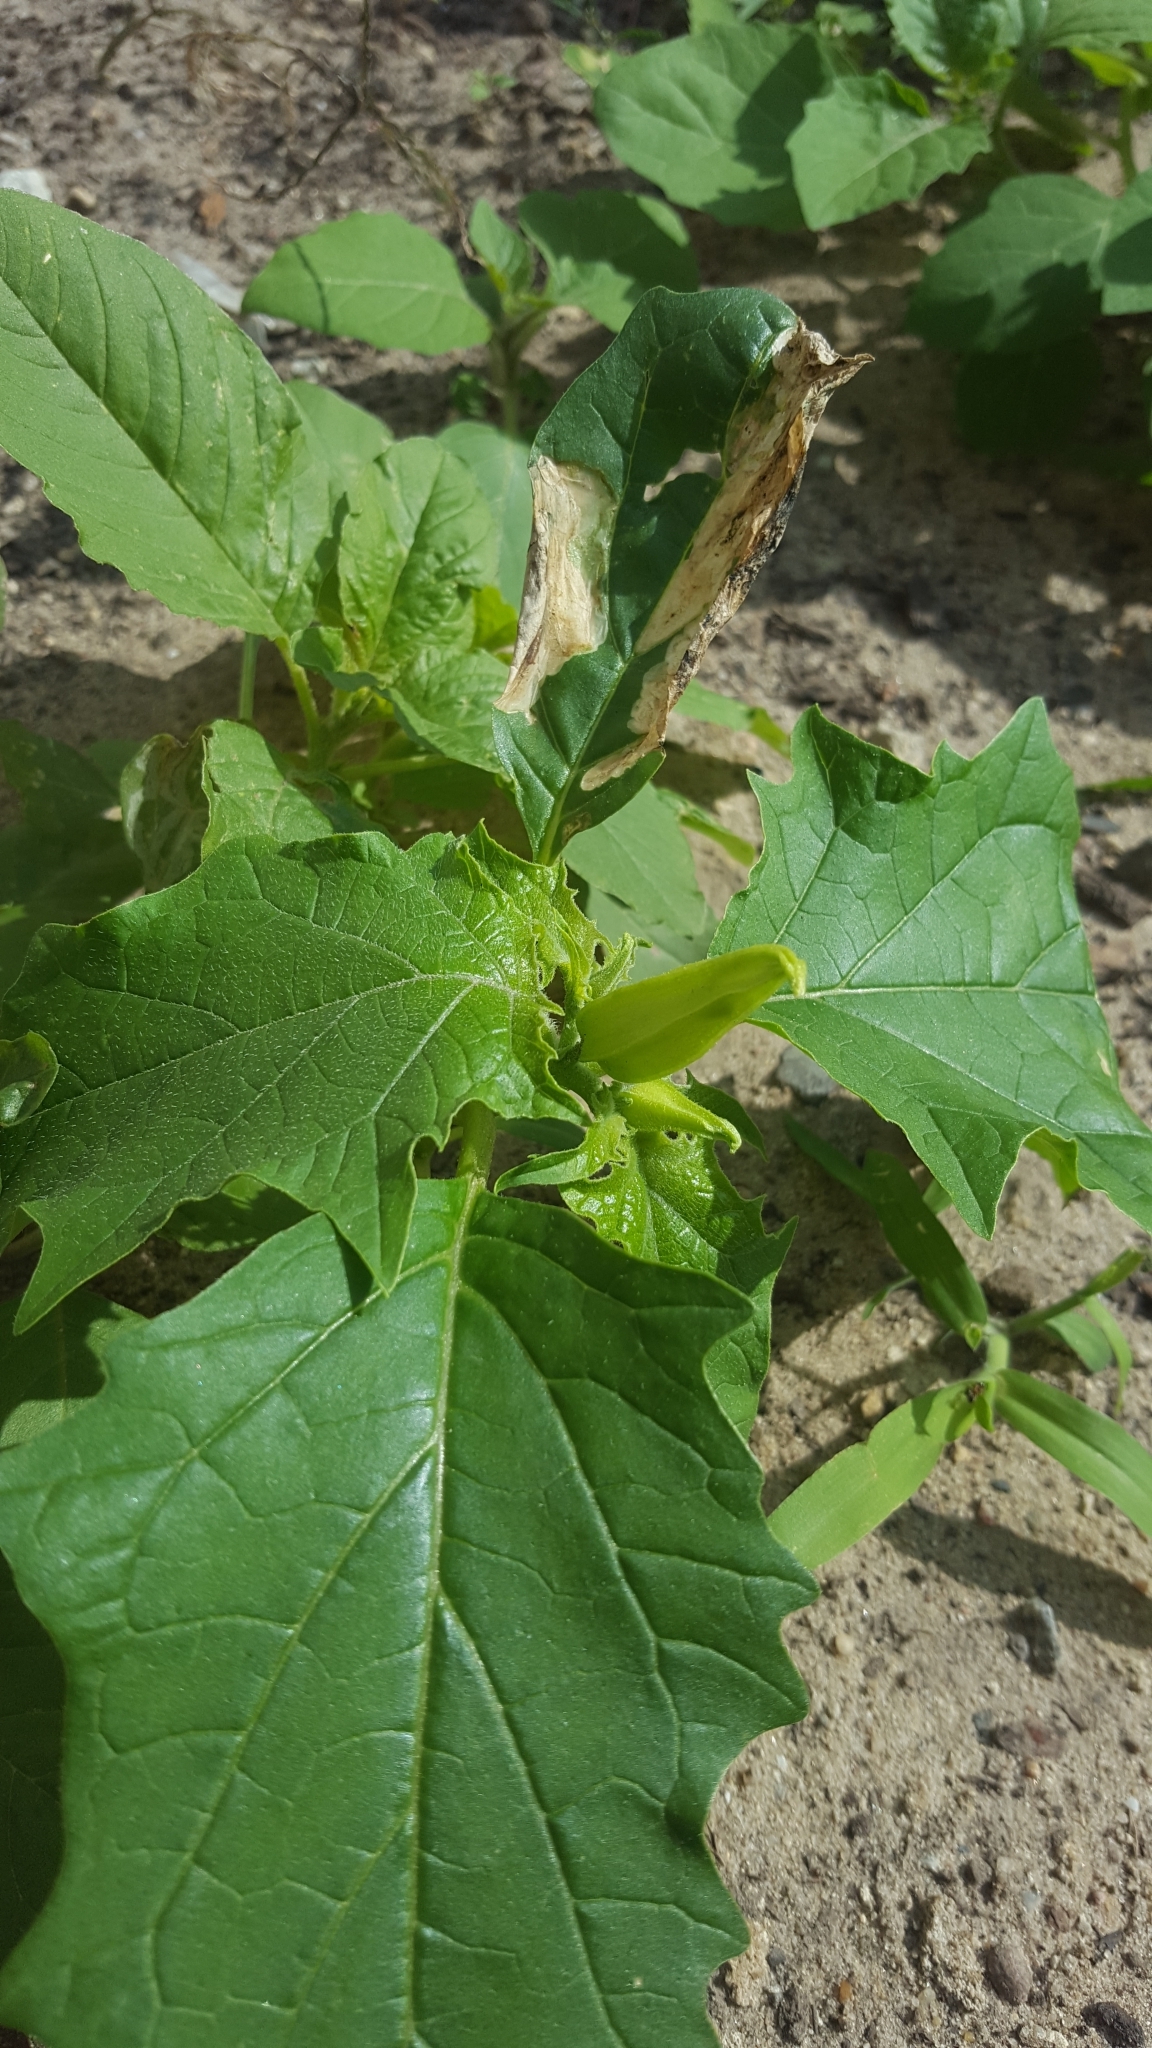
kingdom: Plantae
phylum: Tracheophyta
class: Magnoliopsida
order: Solanales
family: Solanaceae
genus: Datura
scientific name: Datura stramonium
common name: Thorn-apple
